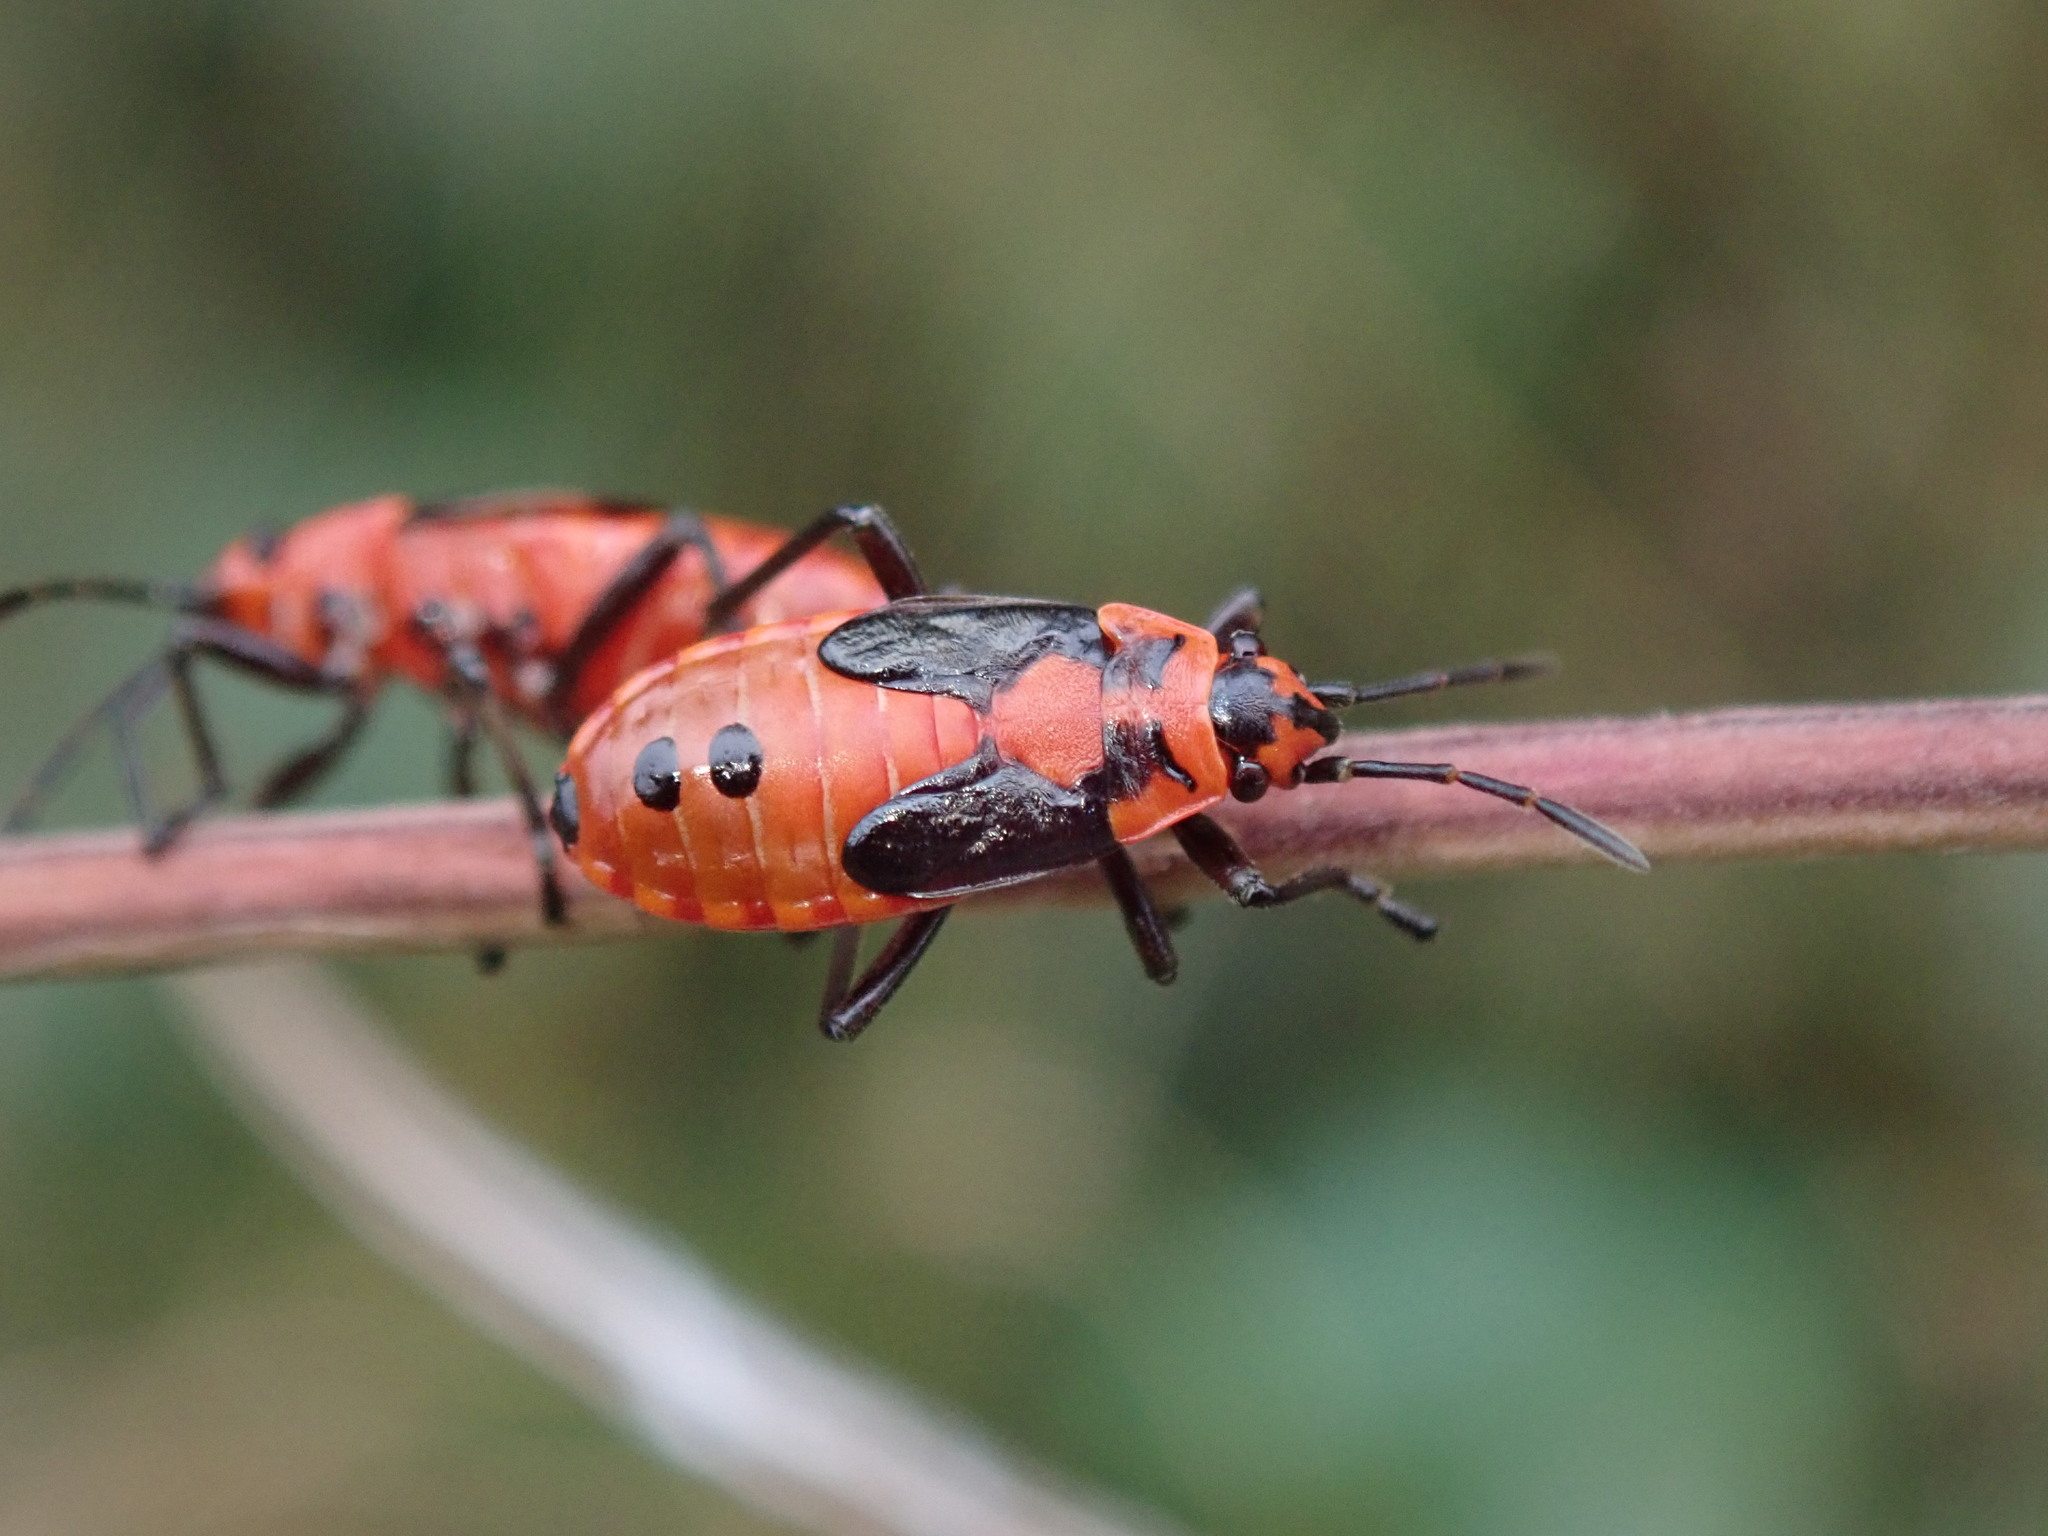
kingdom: Animalia
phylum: Arthropoda
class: Insecta
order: Hemiptera
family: Lygaeidae
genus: Lygaeus
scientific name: Lygaeus equestris
